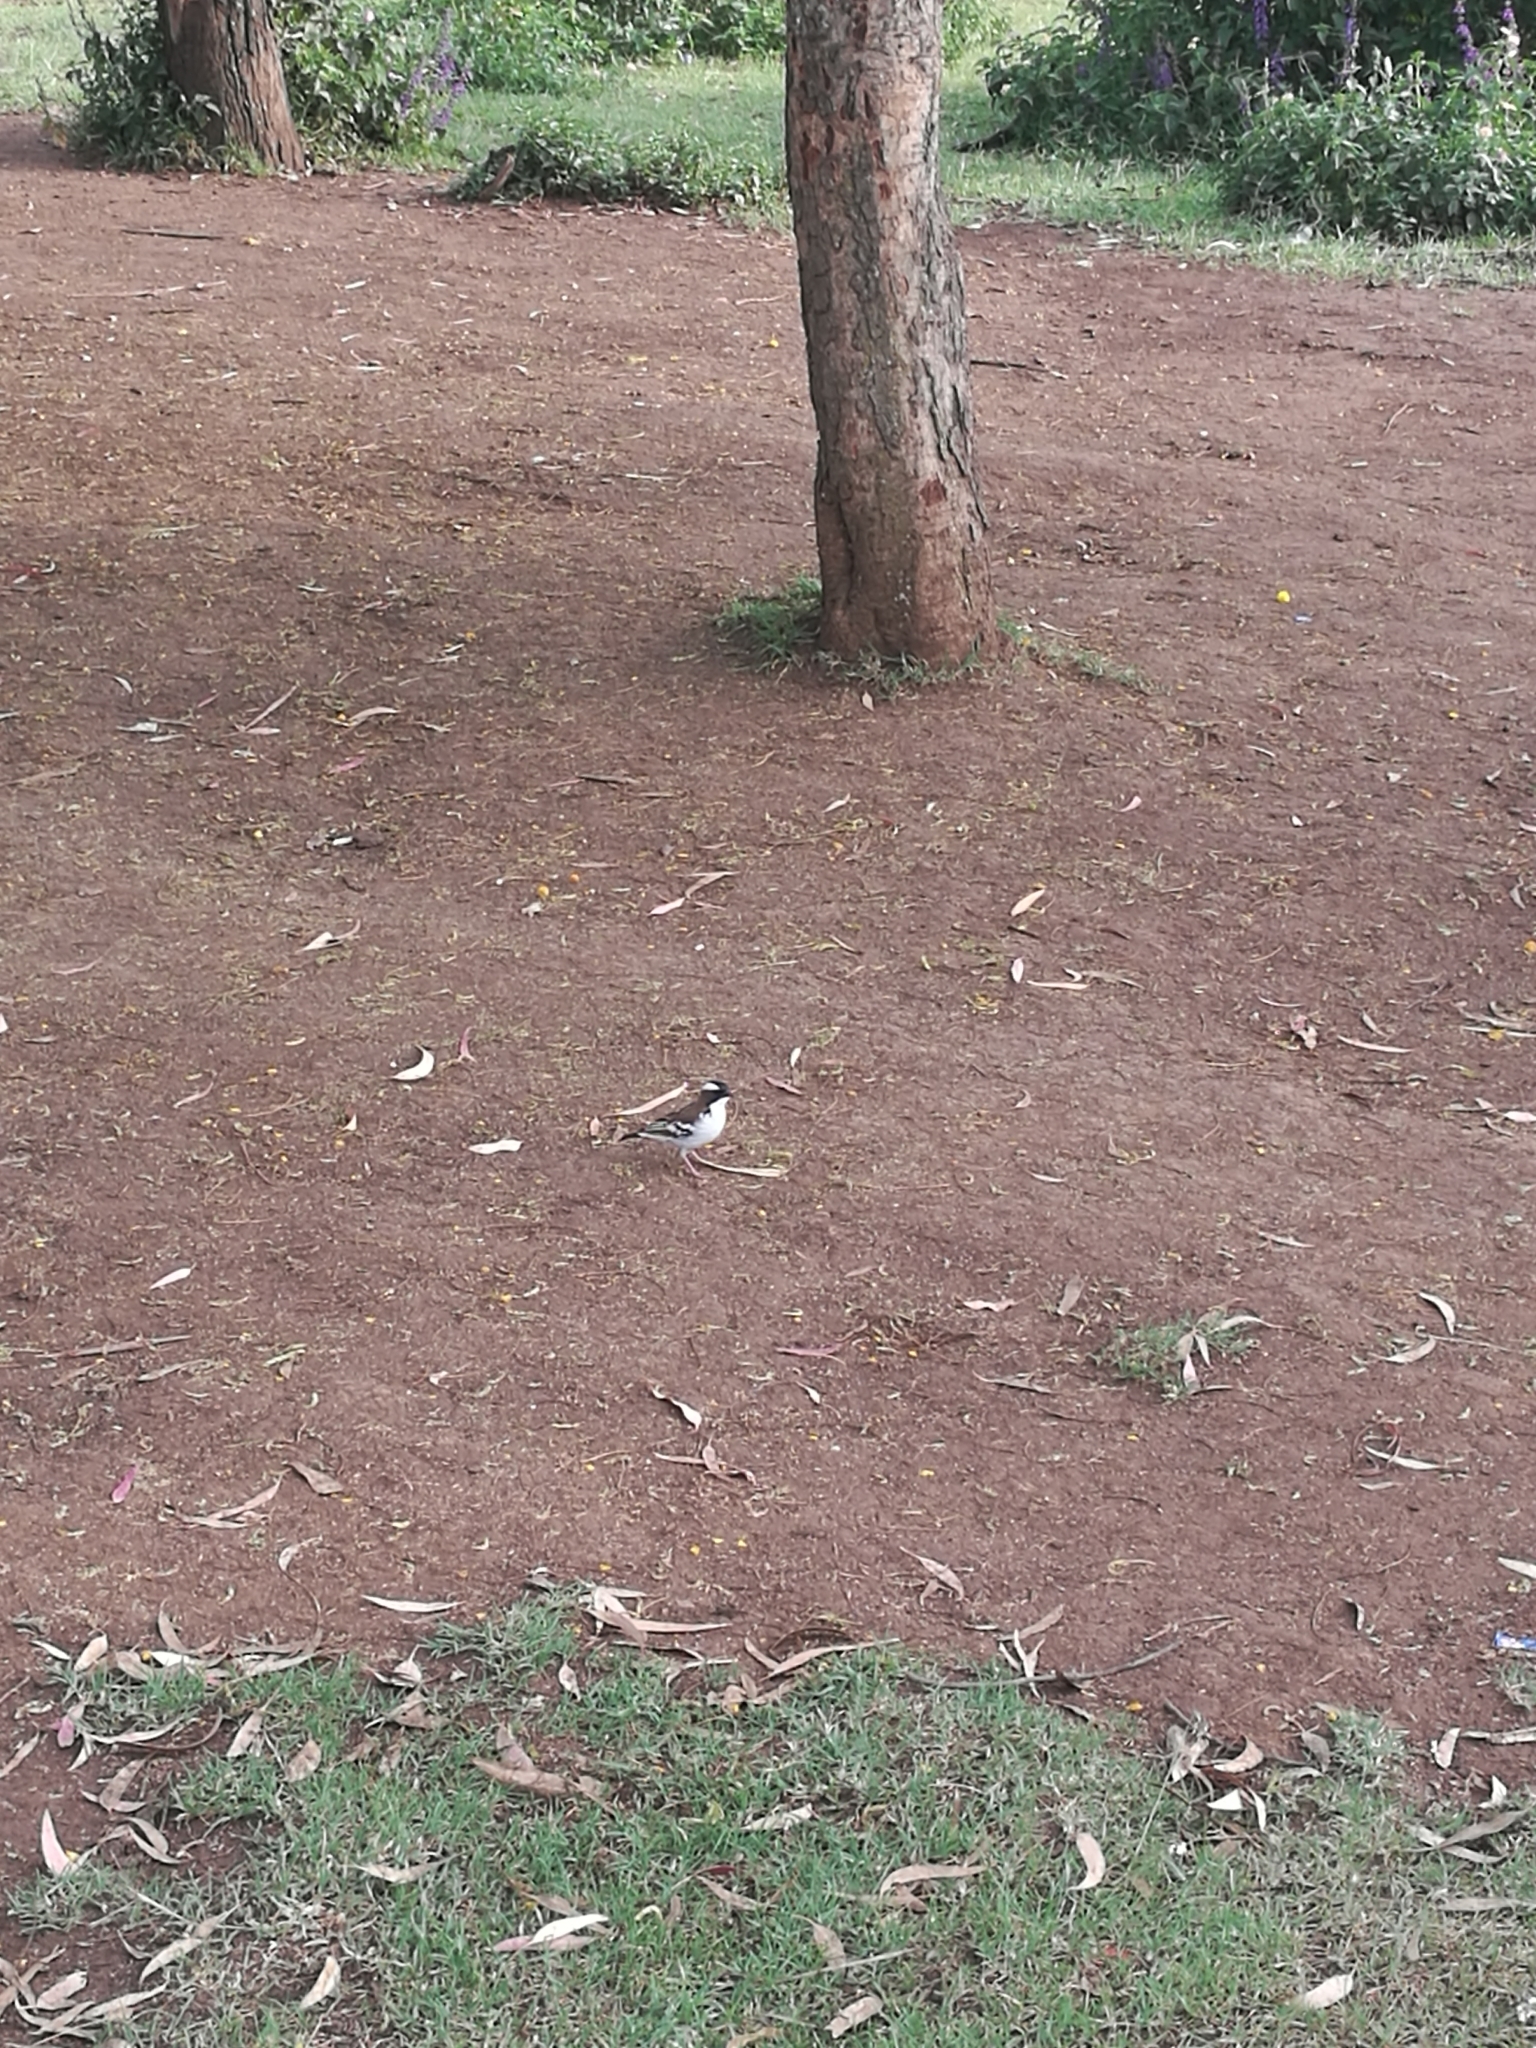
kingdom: Animalia
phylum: Chordata
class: Aves
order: Passeriformes
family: Passeridae
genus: Plocepasser
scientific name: Plocepasser mahali
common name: White-browed sparrow-weaver
